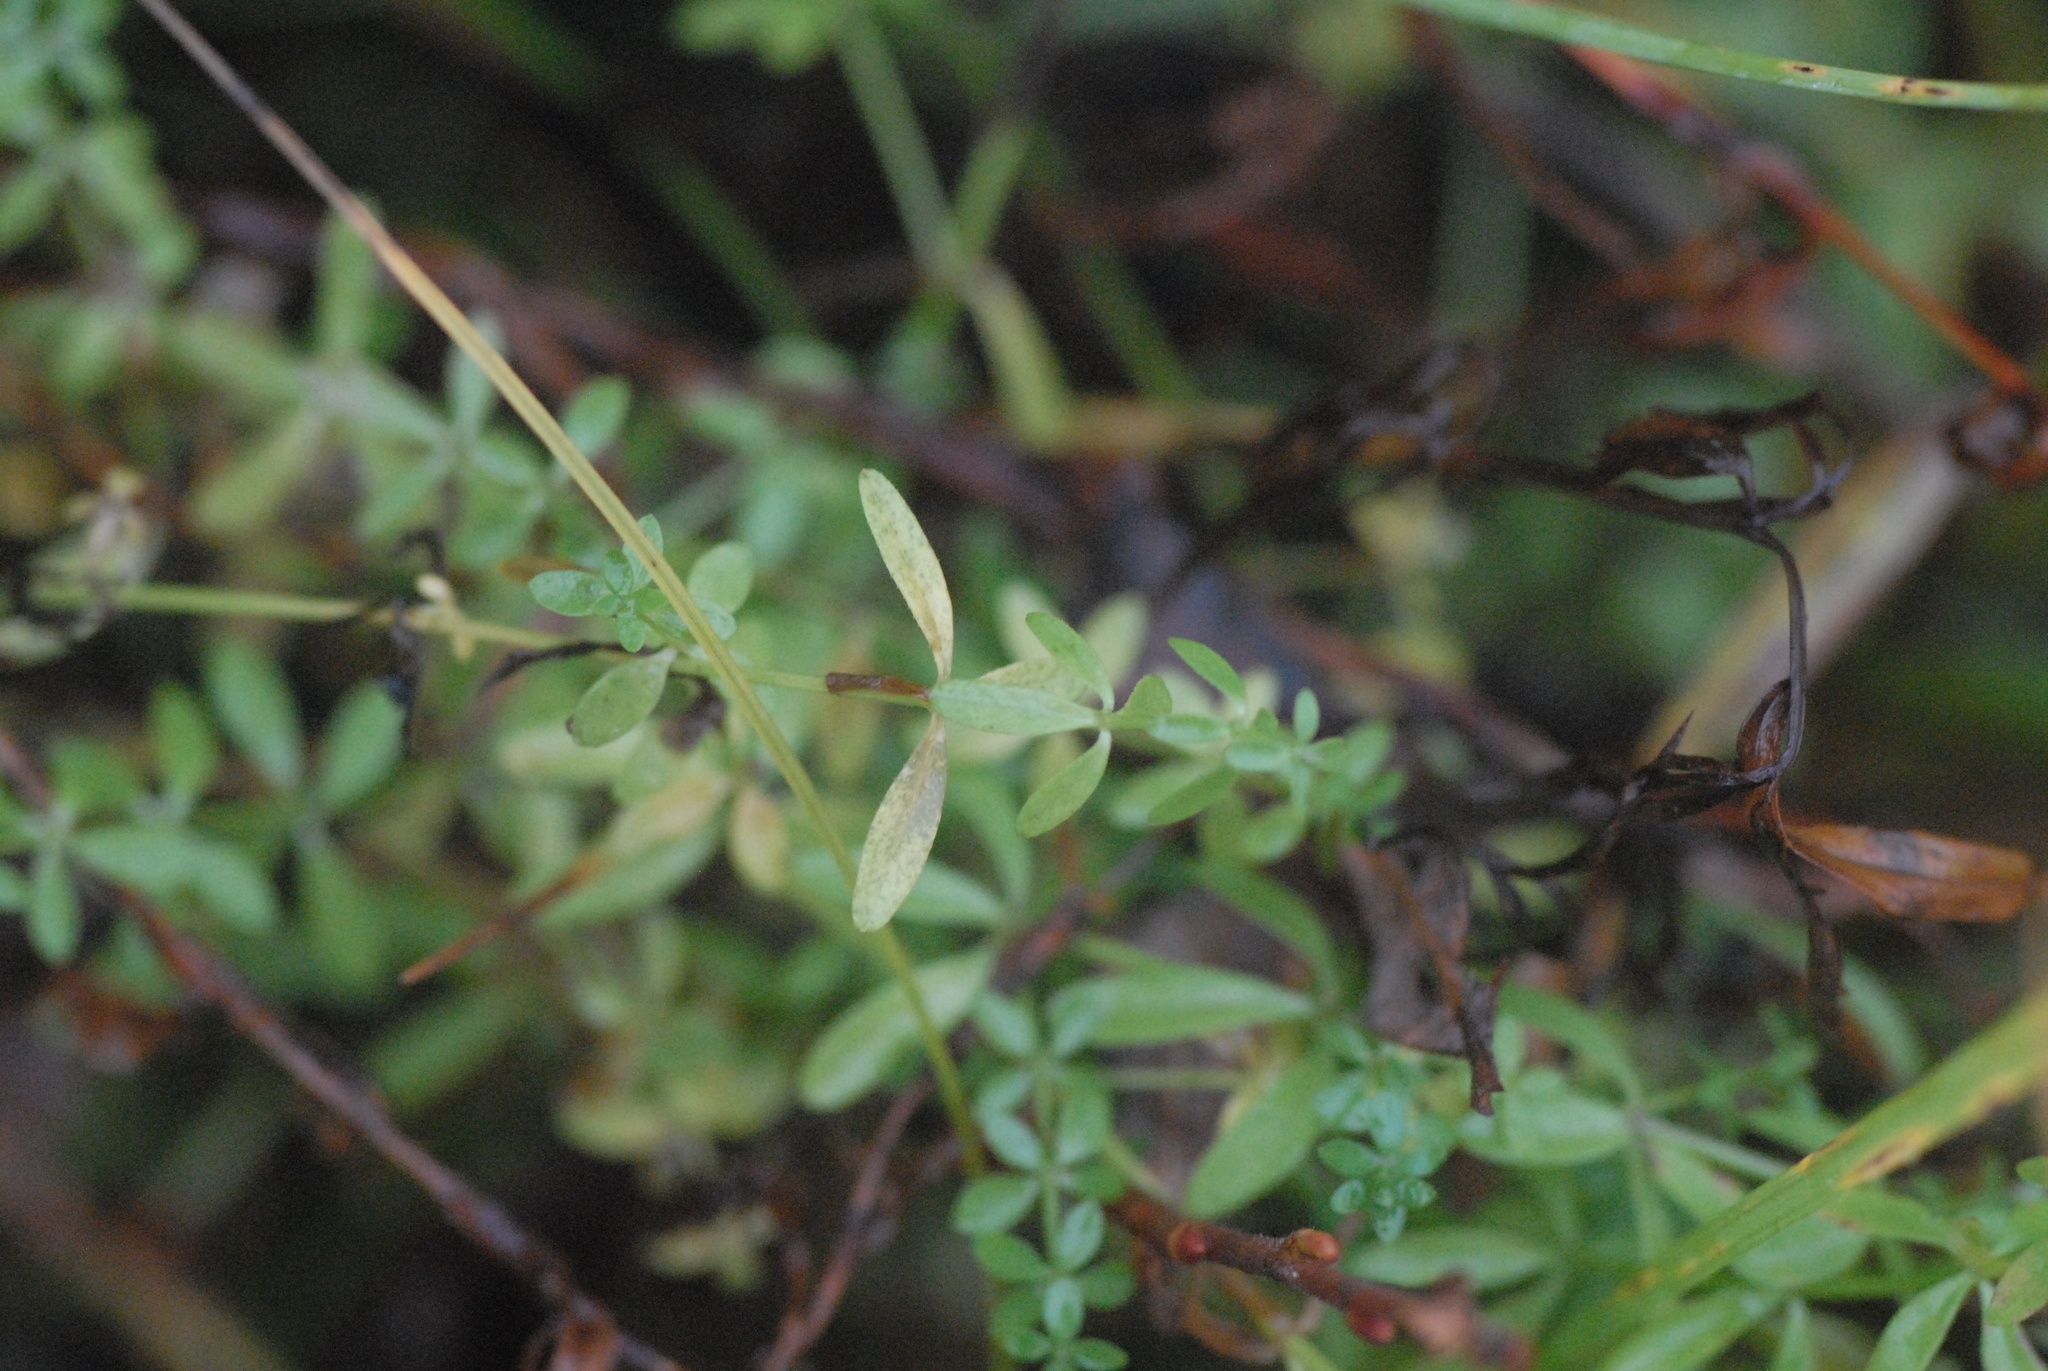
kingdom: Plantae
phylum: Tracheophyta
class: Magnoliopsida
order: Gentianales
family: Rubiaceae
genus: Galium
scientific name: Galium palustre
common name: Common marsh-bedstraw
